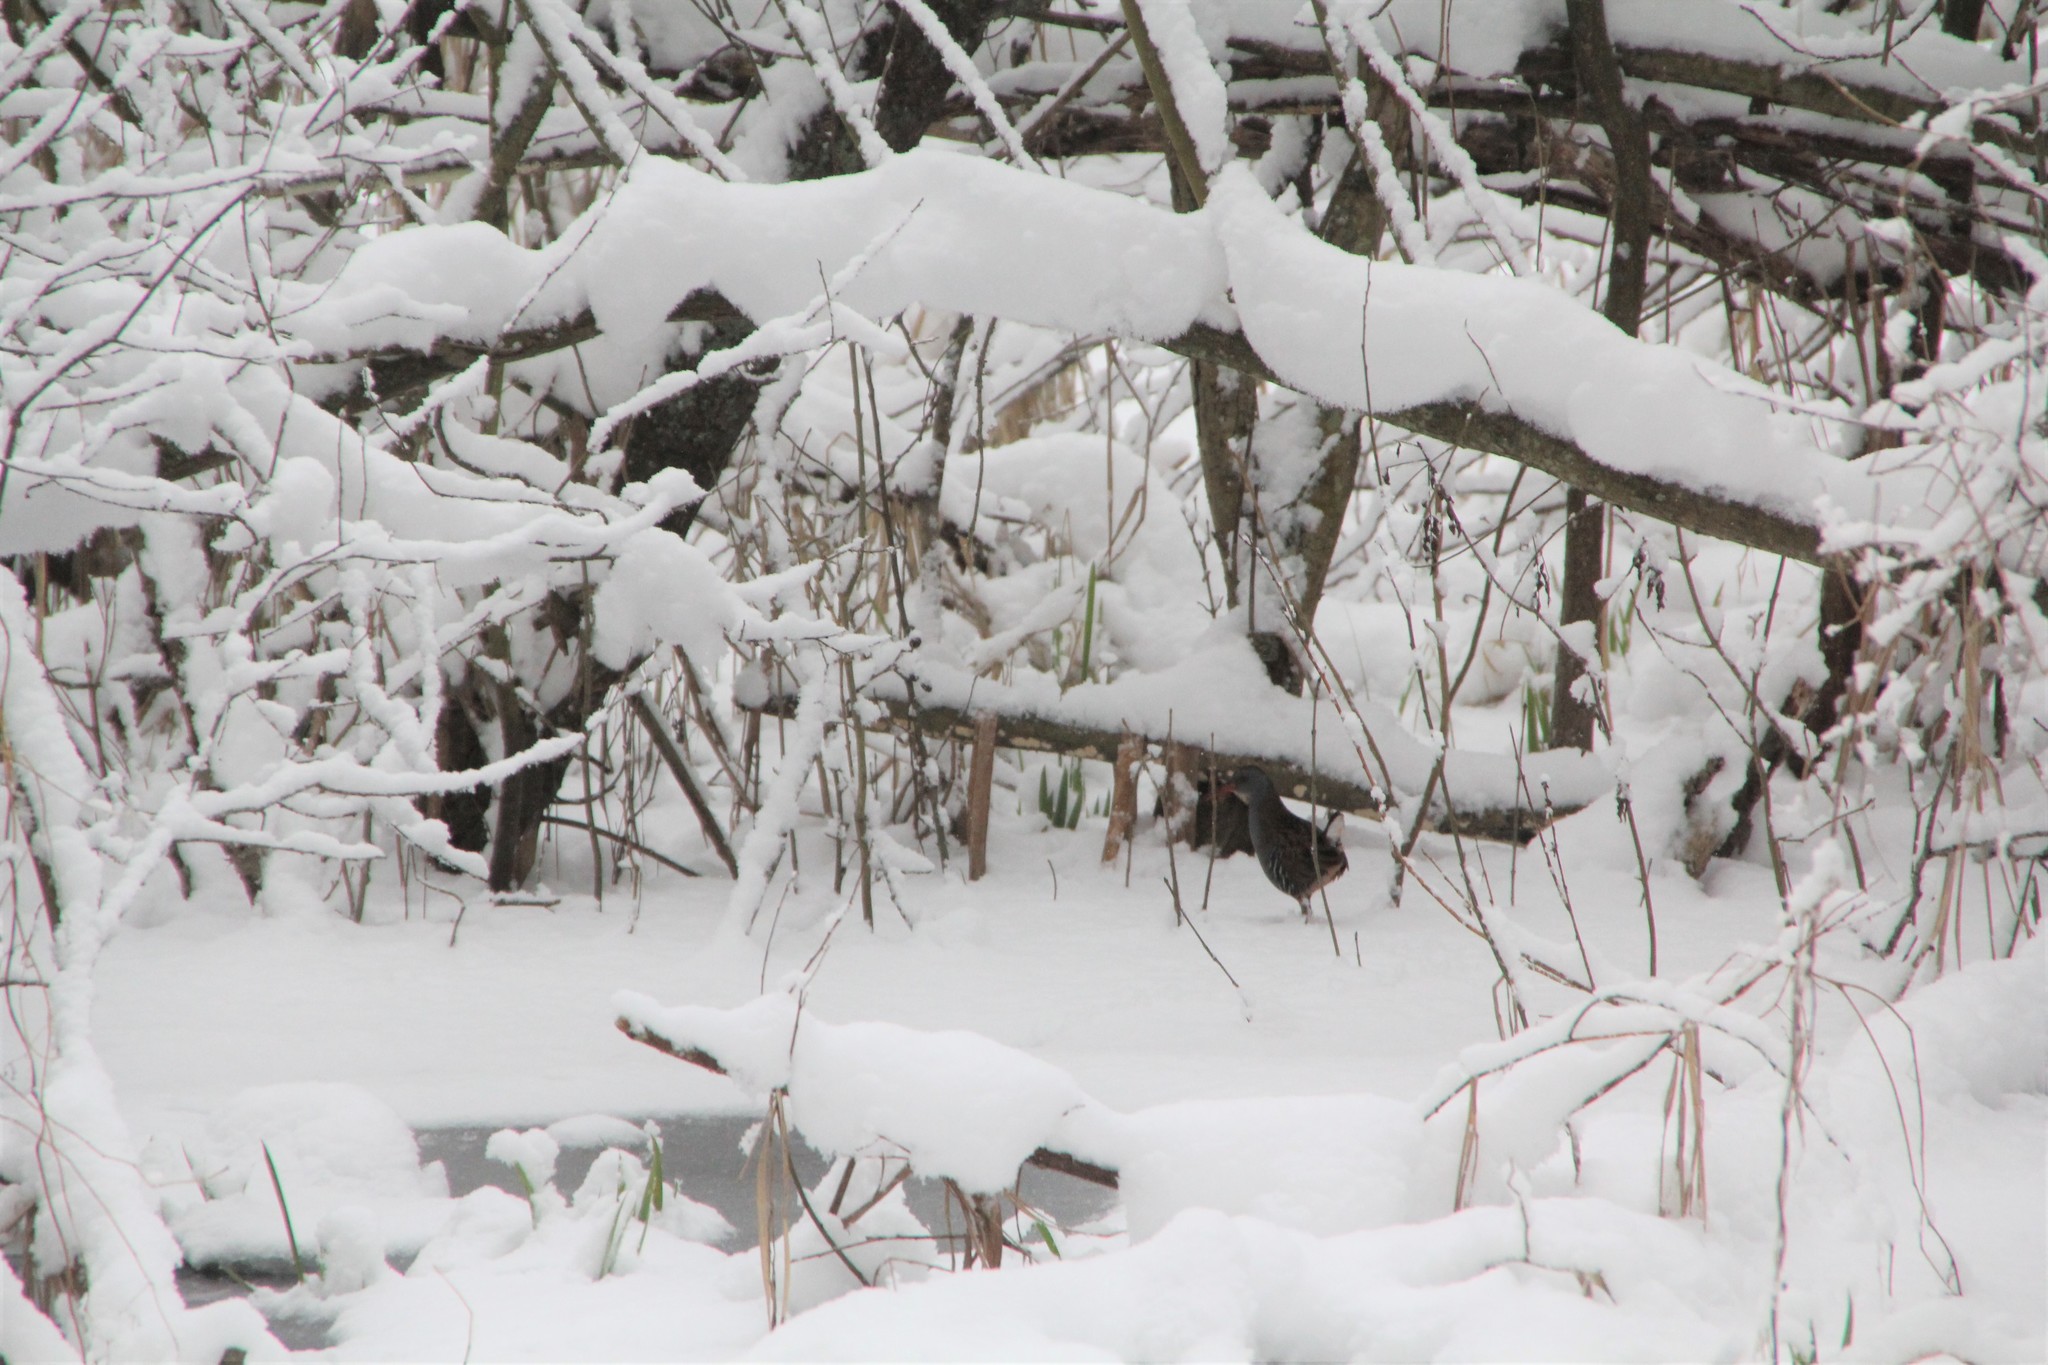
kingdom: Animalia
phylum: Chordata
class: Aves
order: Gruiformes
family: Rallidae
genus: Rallus
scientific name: Rallus aquaticus
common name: Water rail
